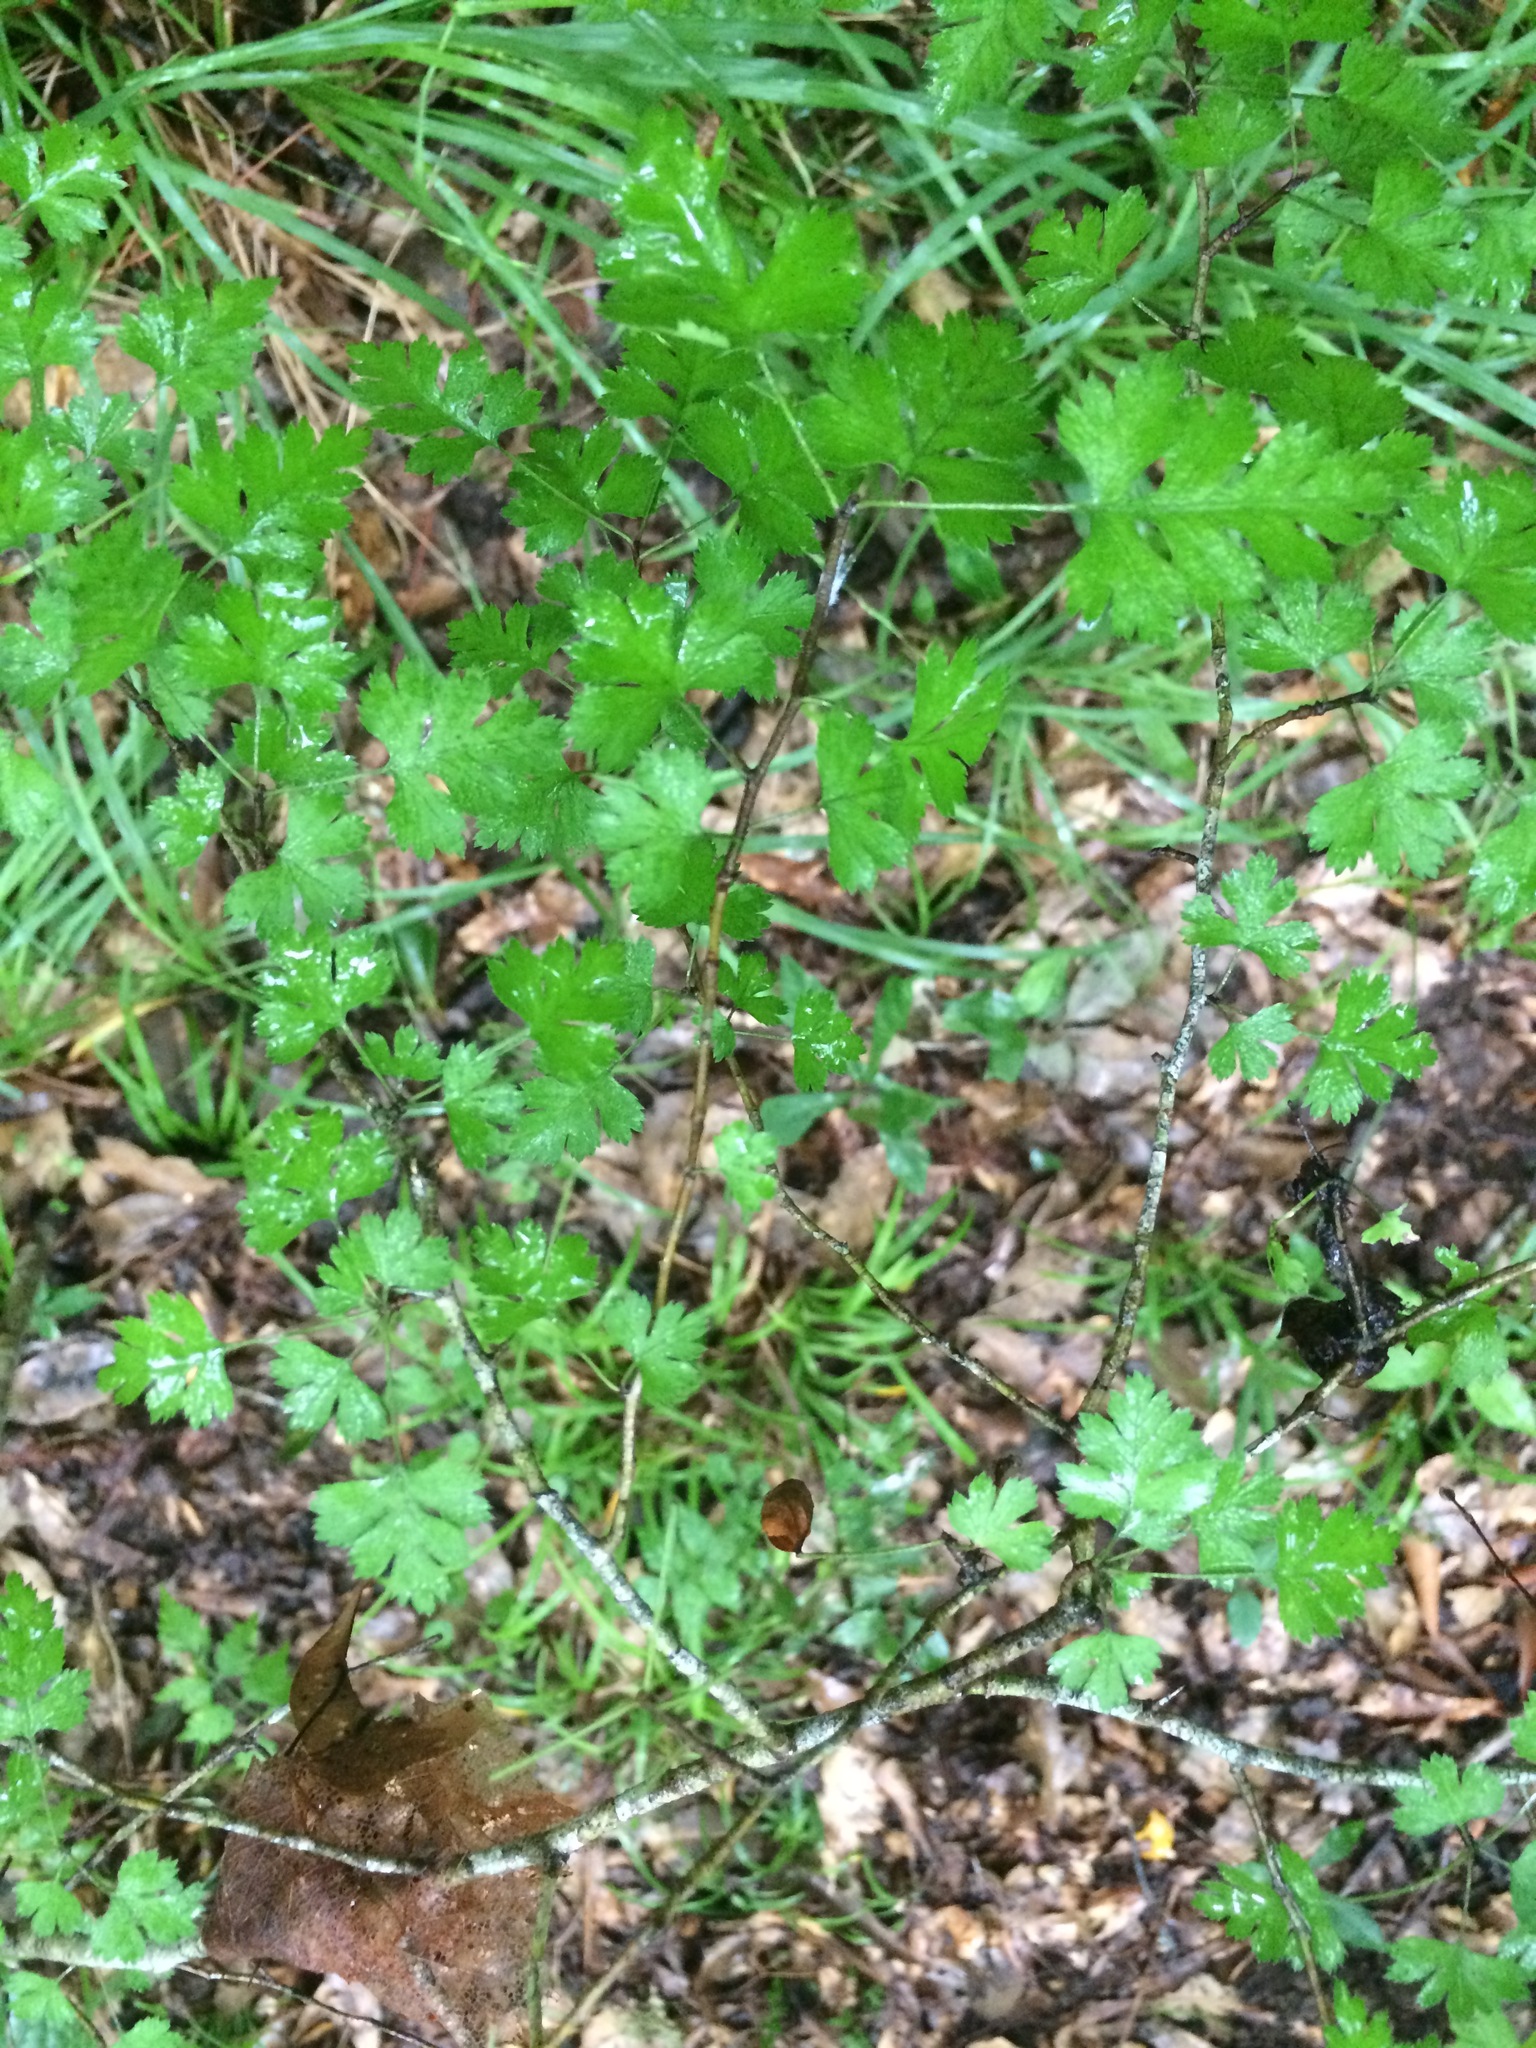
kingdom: Plantae
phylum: Tracheophyta
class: Magnoliopsida
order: Rosales
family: Rosaceae
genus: Crataegus
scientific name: Crataegus marshallii
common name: Parsley-hawthorn
